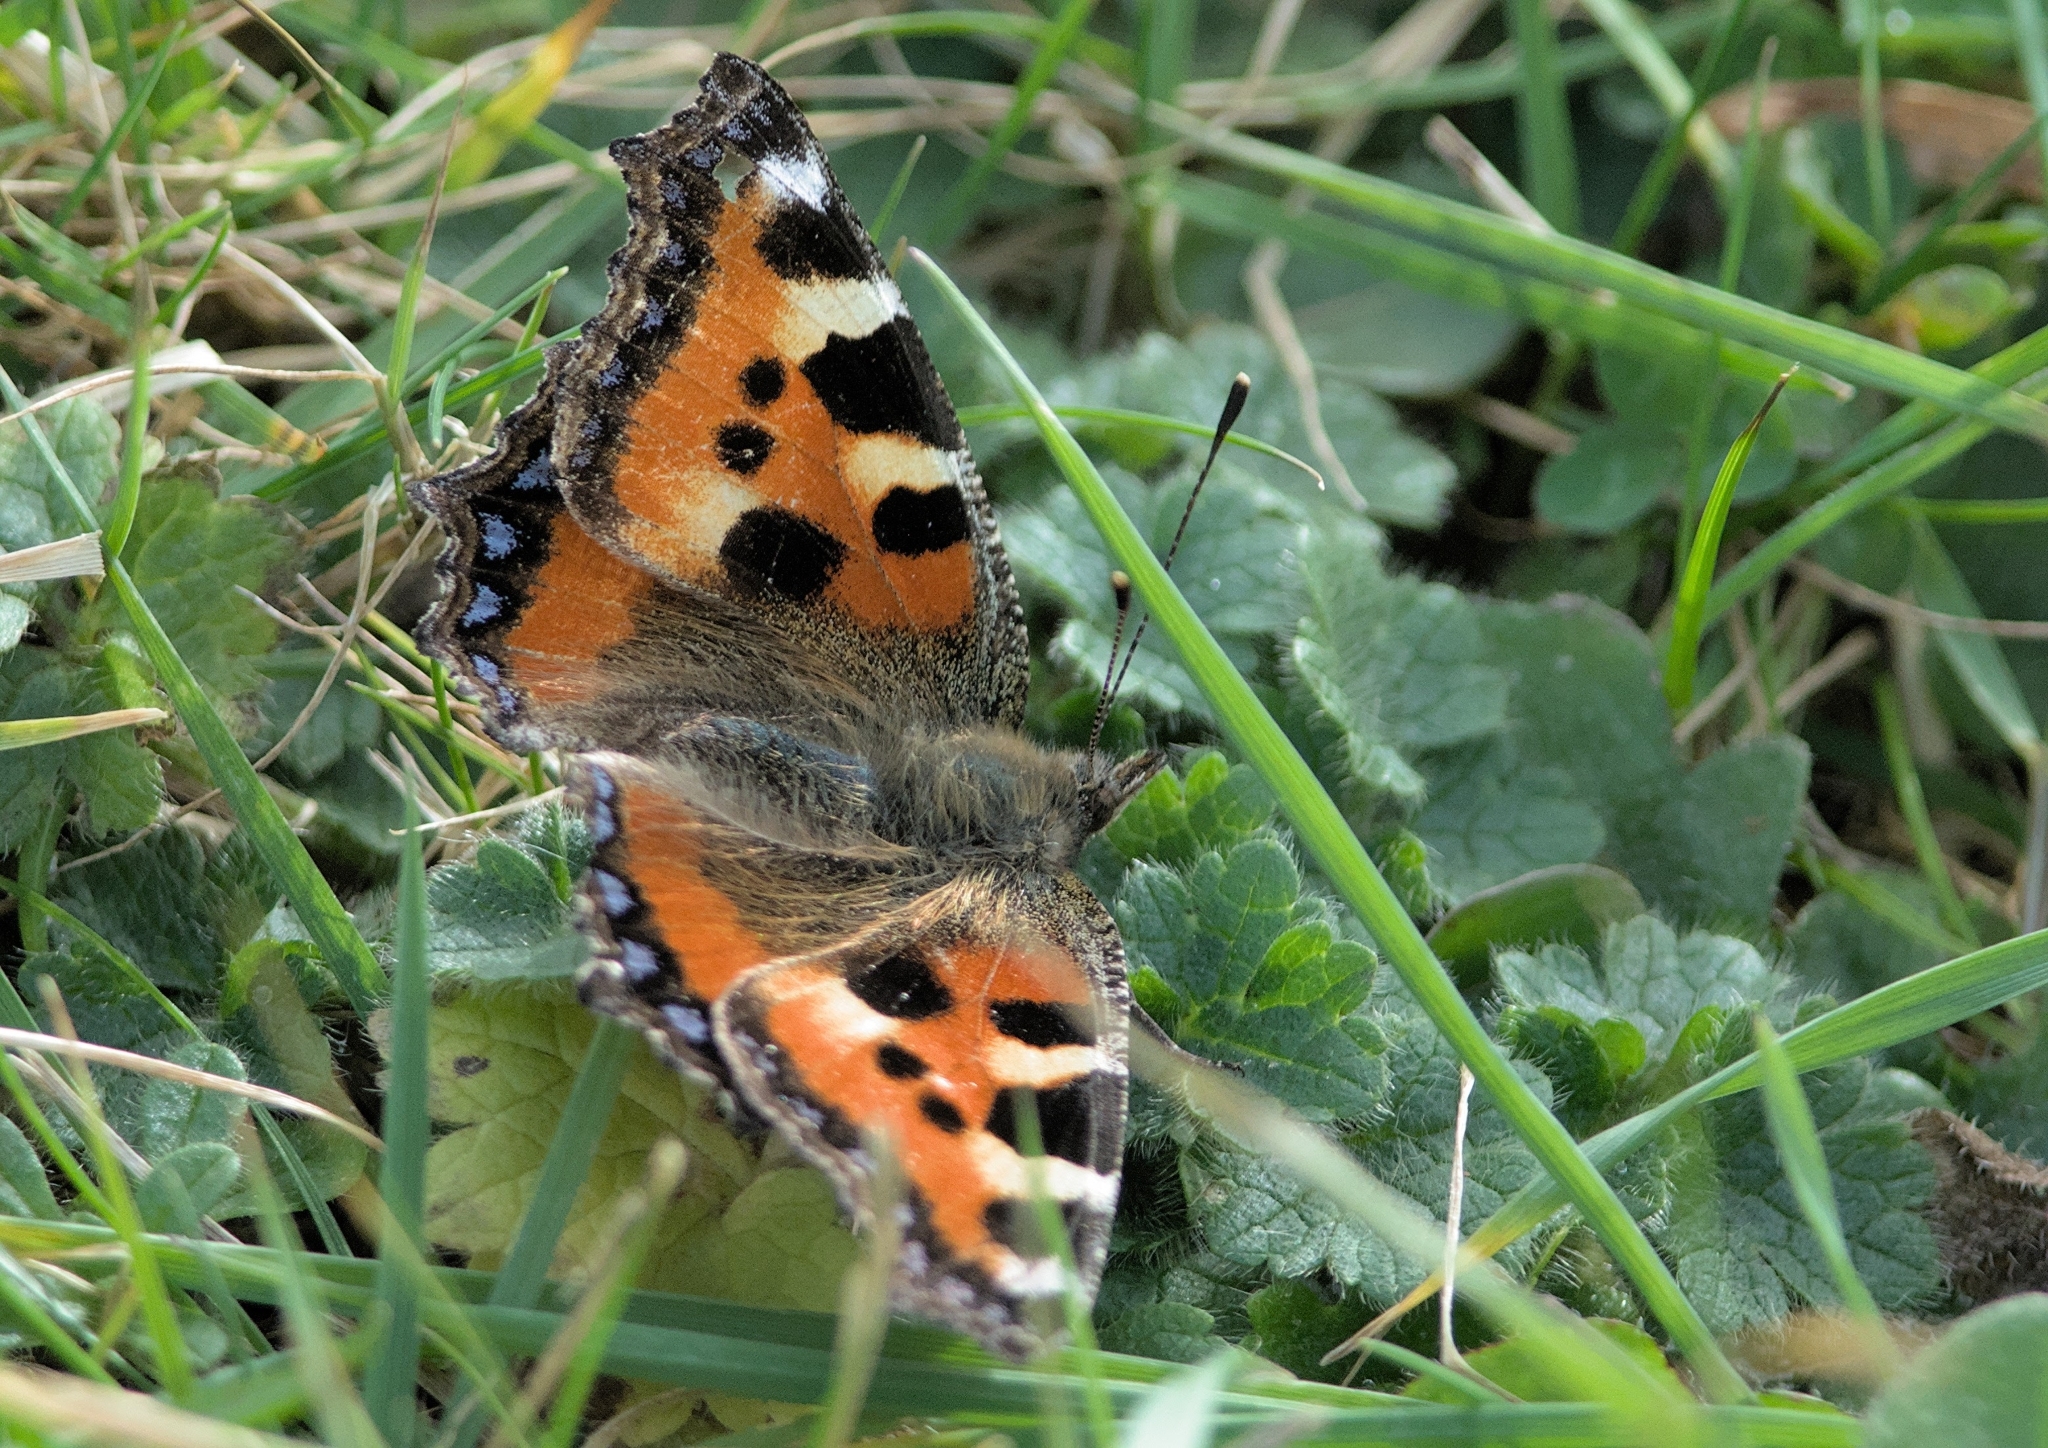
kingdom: Animalia
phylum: Arthropoda
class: Insecta
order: Lepidoptera
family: Nymphalidae
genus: Aglais
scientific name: Aglais urticae
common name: Small tortoiseshell
